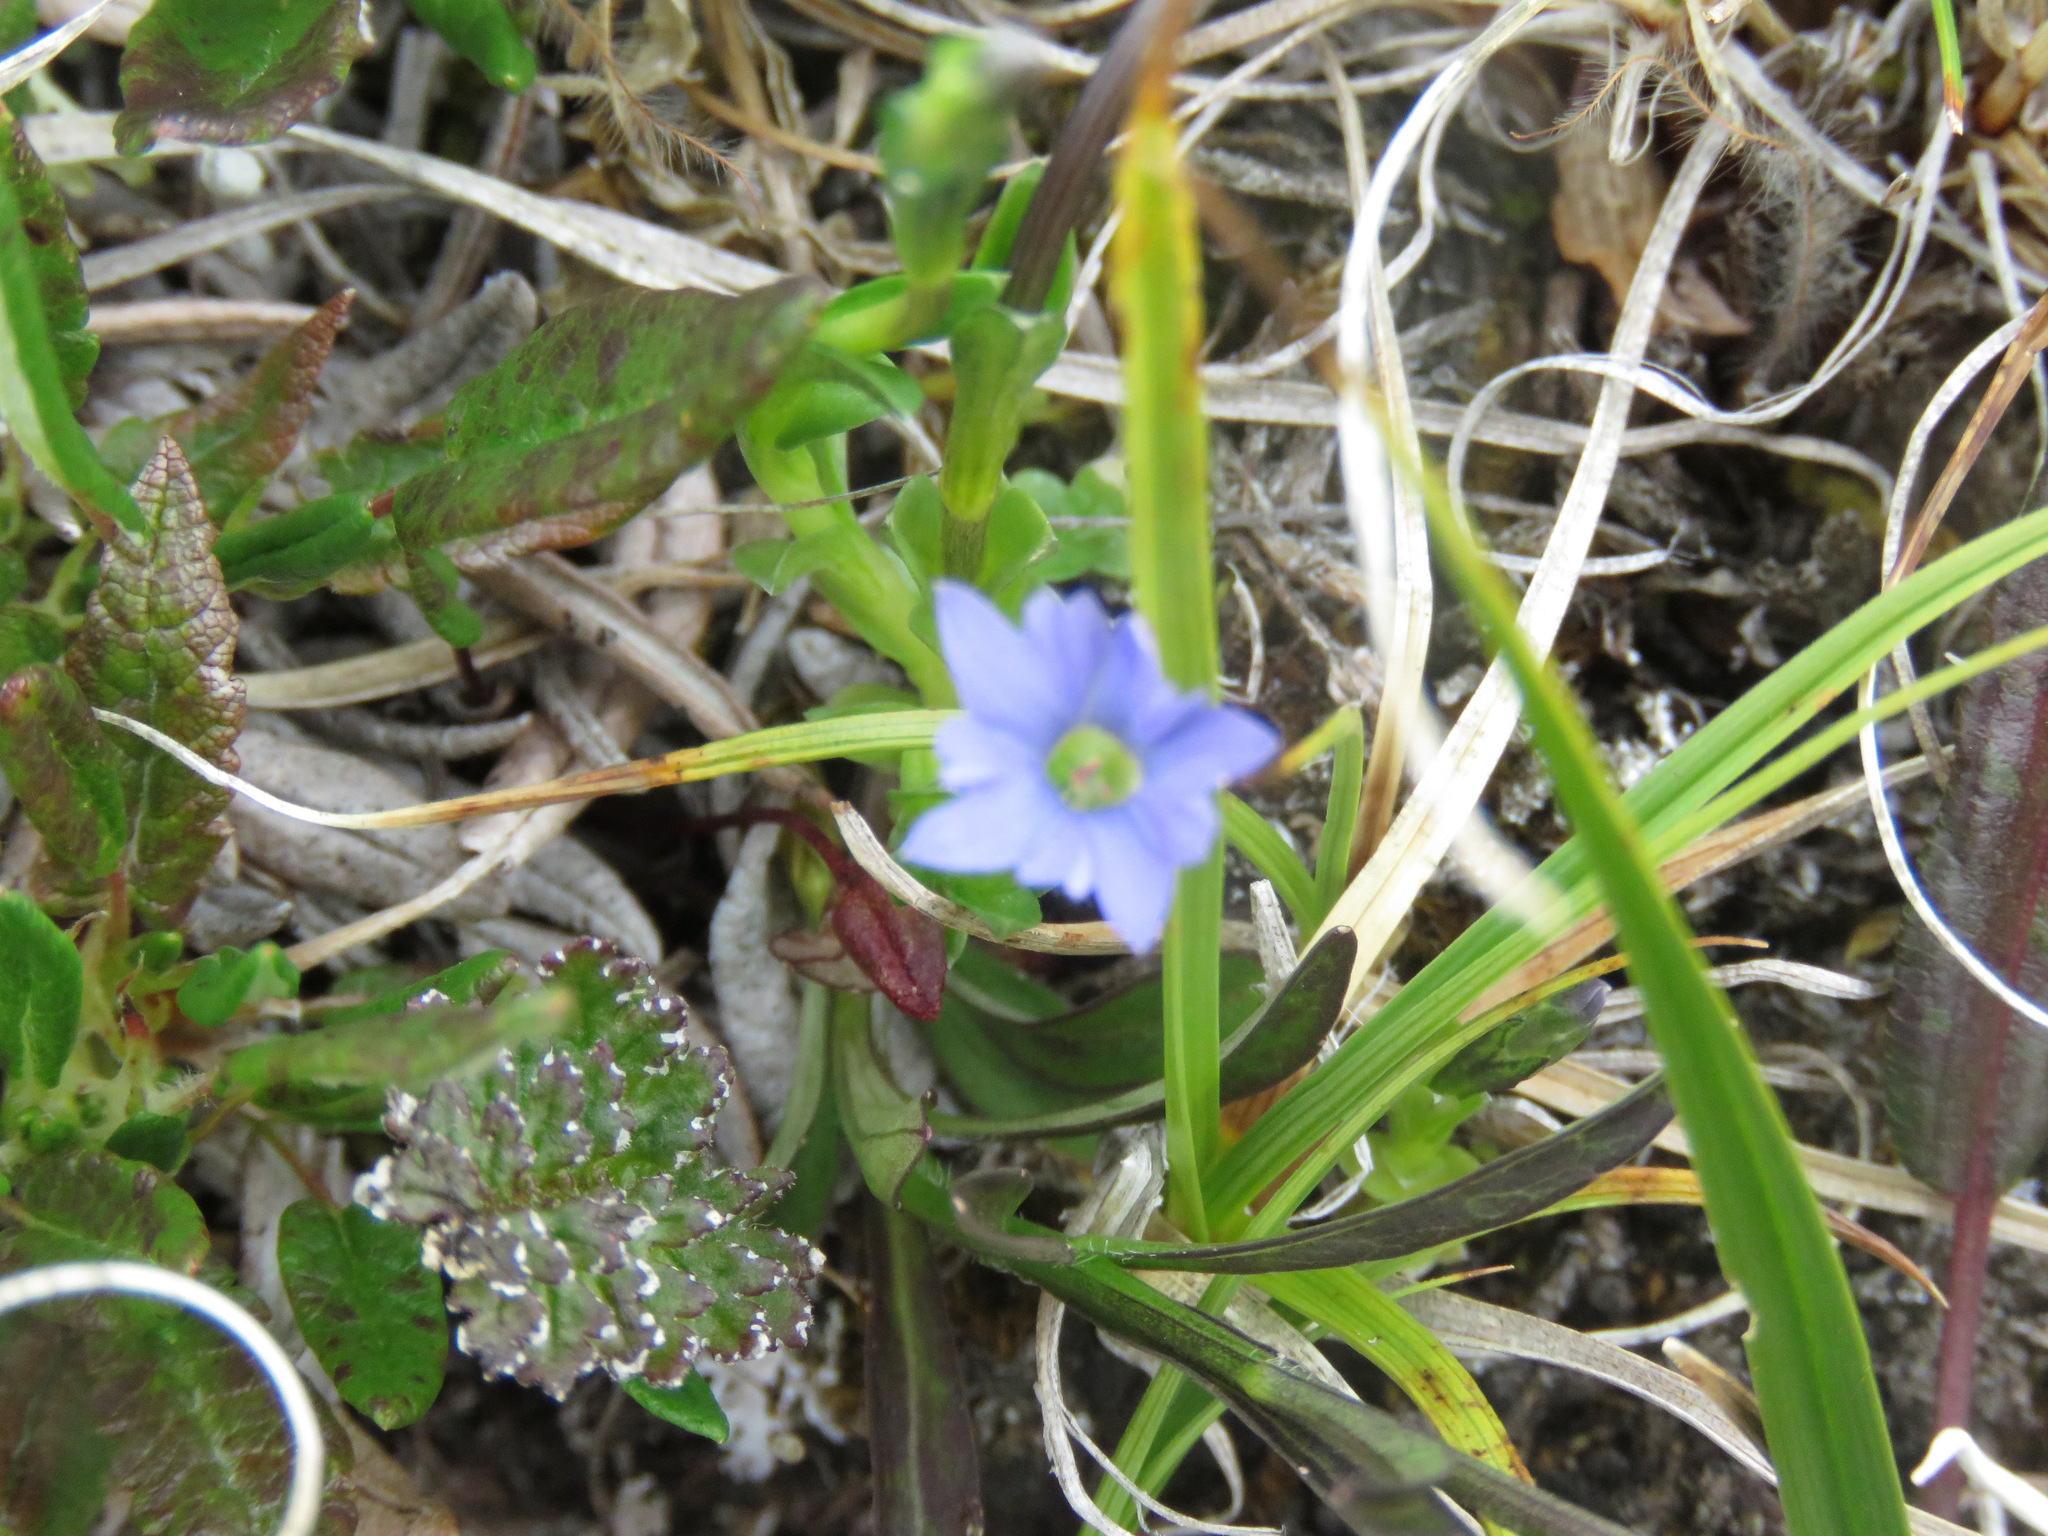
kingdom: Plantae
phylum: Tracheophyta
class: Magnoliopsida
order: Gentianales
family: Gentianaceae
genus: Gentiana
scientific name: Gentiana prostrata
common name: Moss gentian
